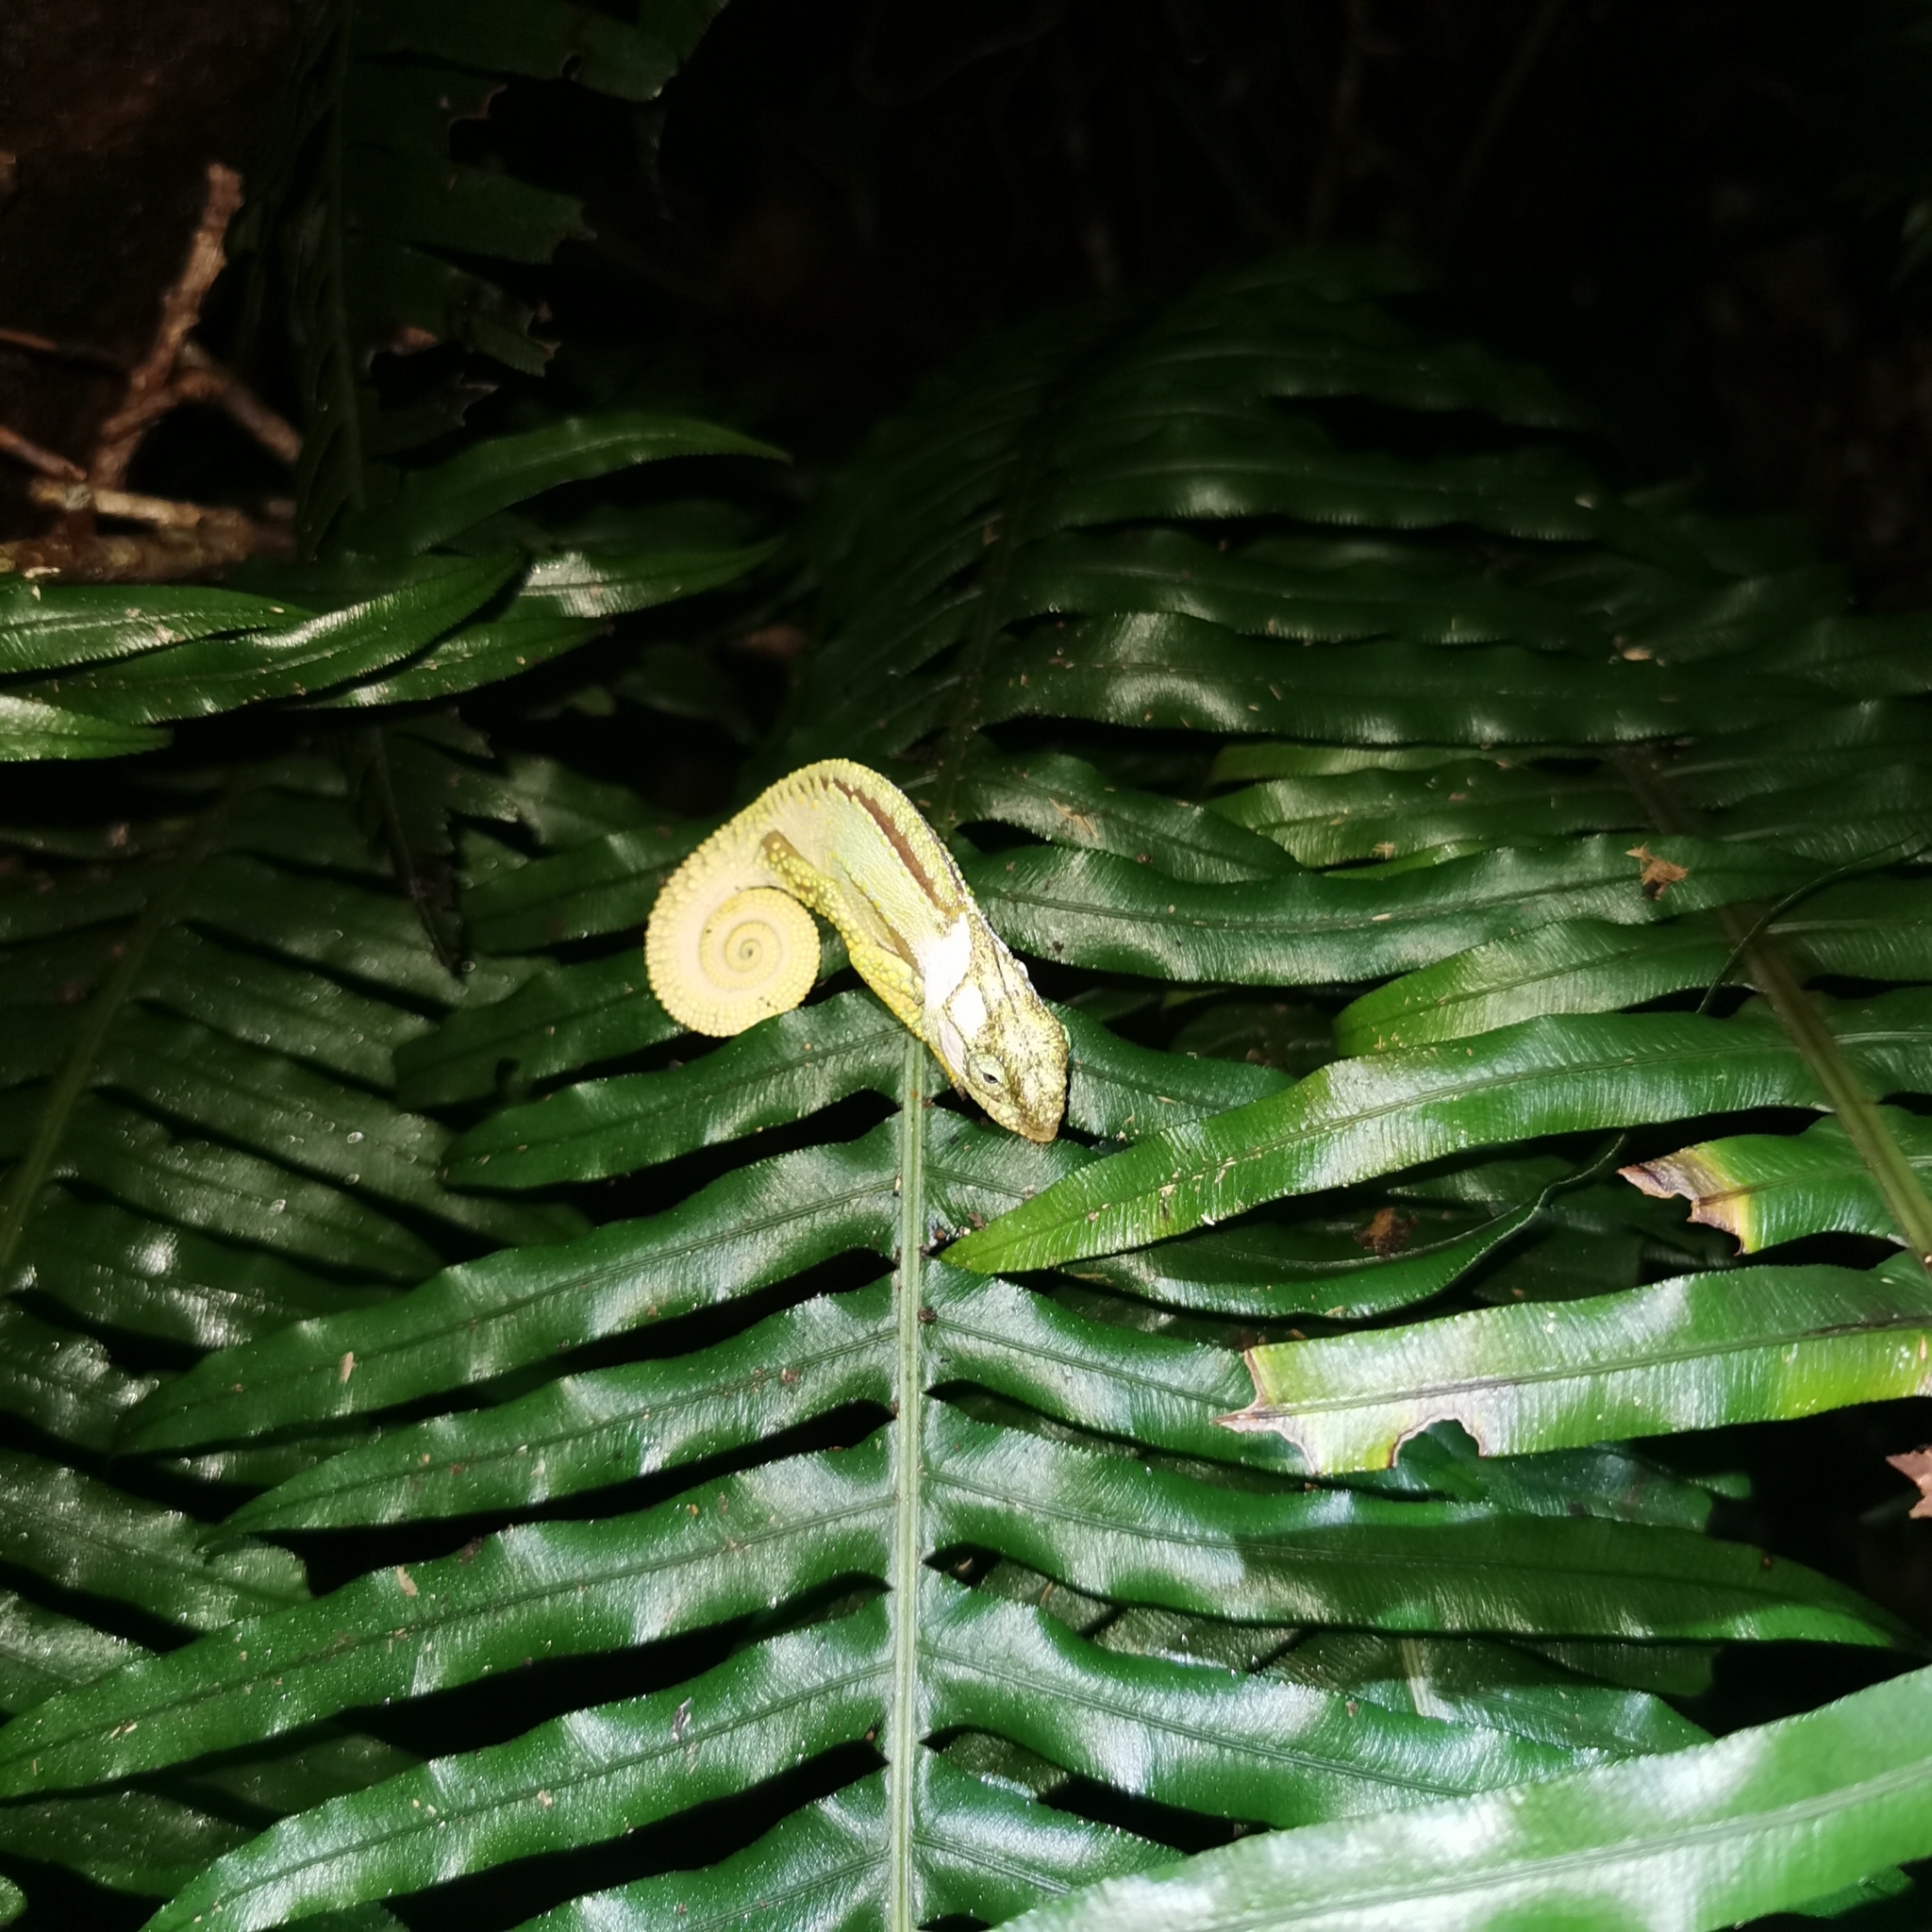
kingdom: Animalia
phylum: Chordata
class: Squamata
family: Chamaeleonidae
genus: Bradypodion
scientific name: Bradypodion damaranum
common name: Knysna dwarf chameleon
